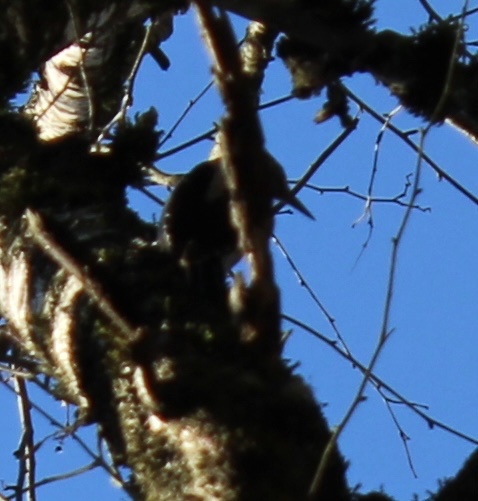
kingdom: Animalia
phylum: Chordata
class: Aves
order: Piciformes
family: Picidae
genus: Leuconotopicus
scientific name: Leuconotopicus villosus
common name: Hairy woodpecker
